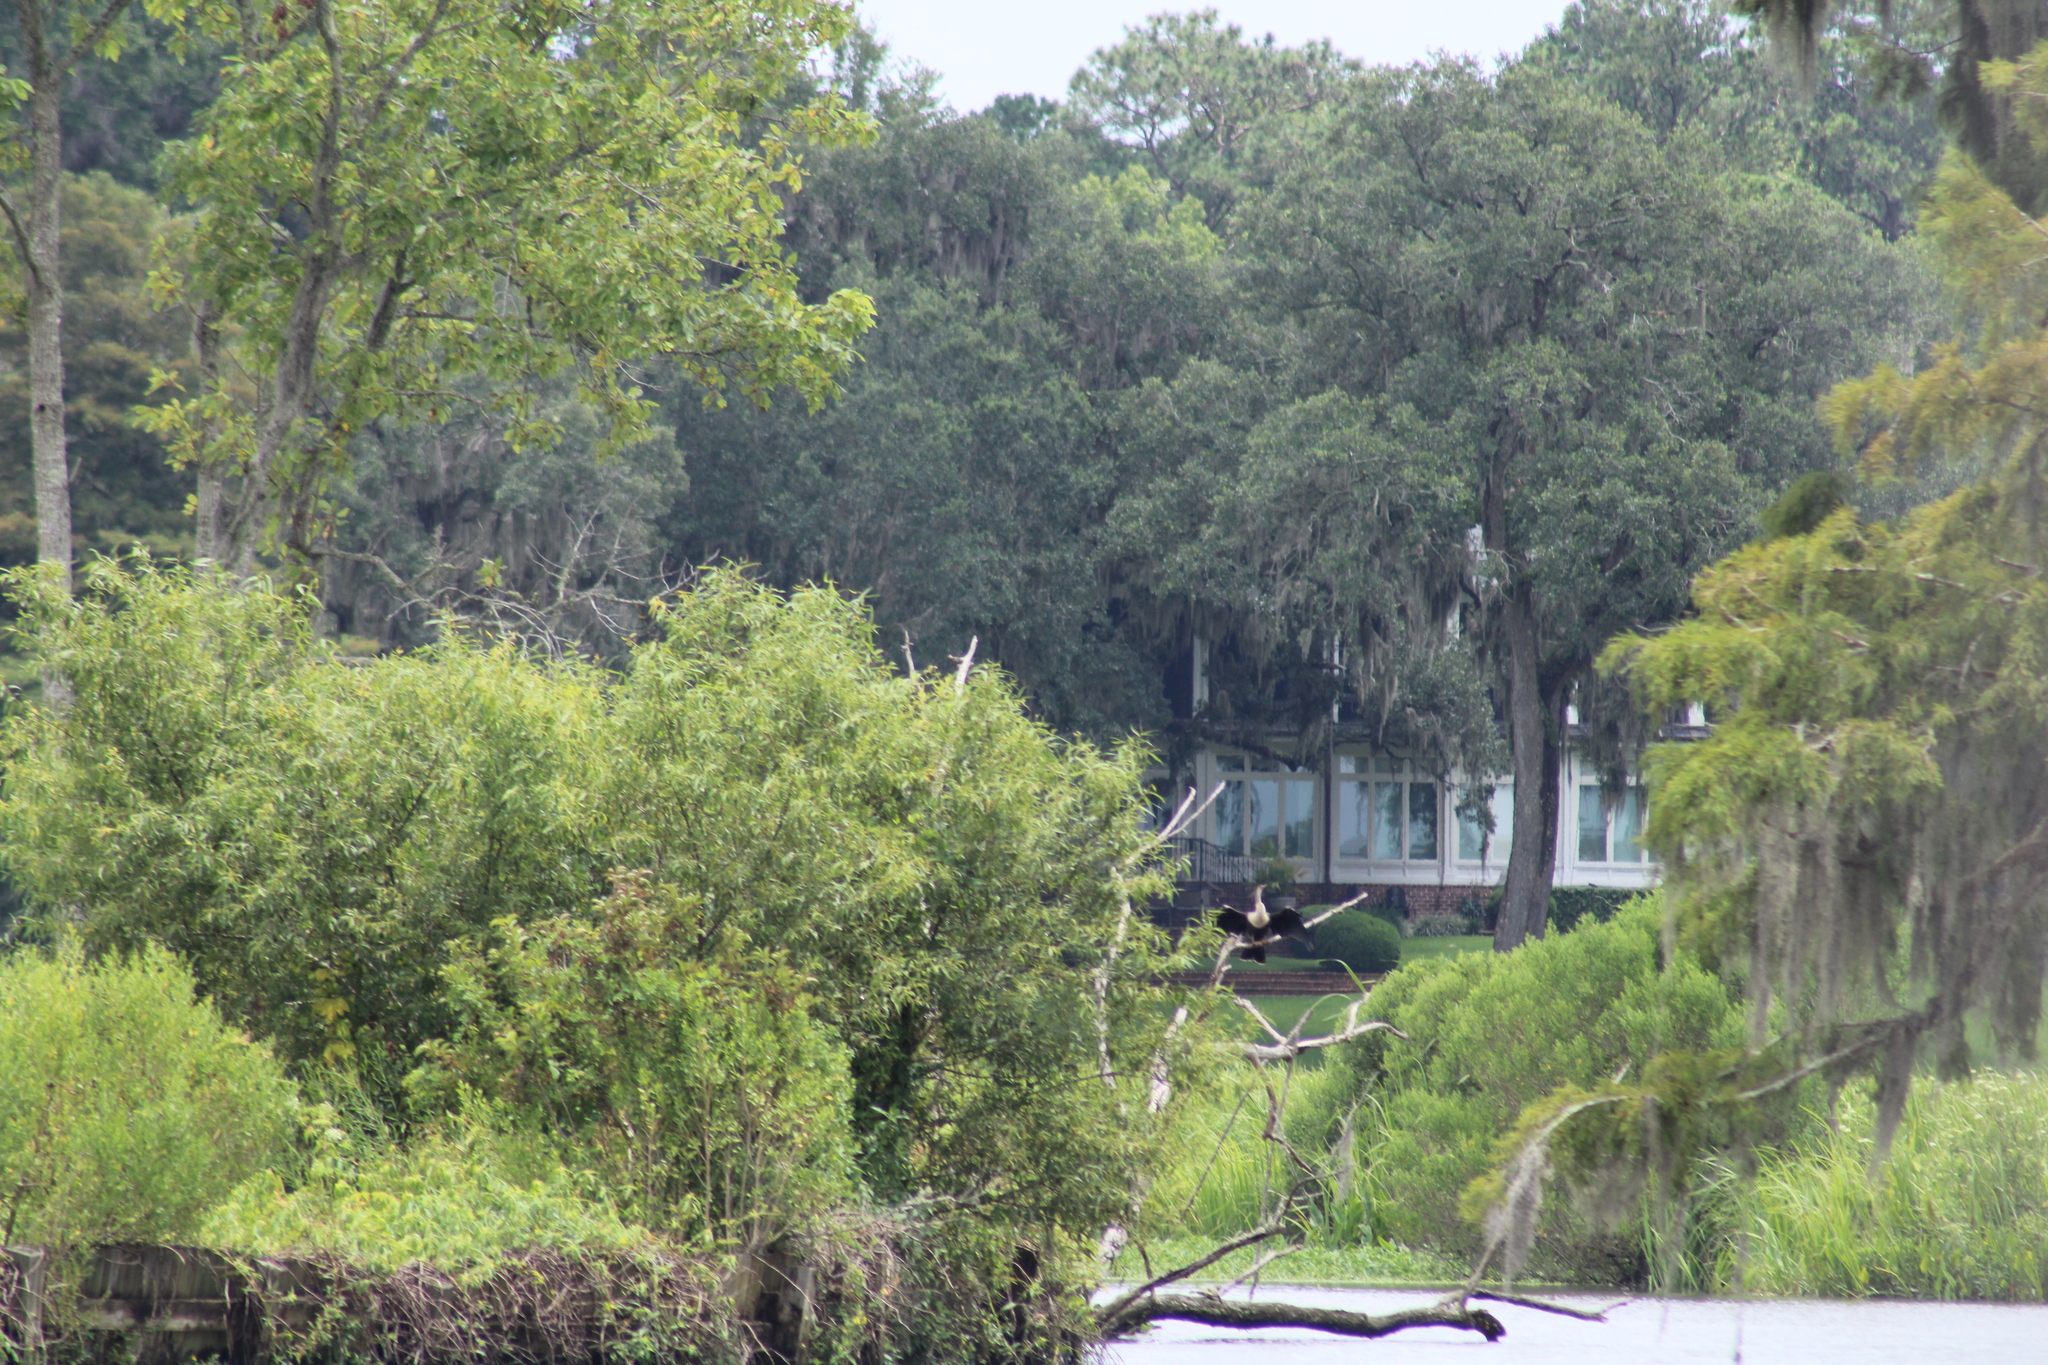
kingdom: Animalia
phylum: Chordata
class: Aves
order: Suliformes
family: Anhingidae
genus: Anhinga
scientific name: Anhinga anhinga
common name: Anhinga
